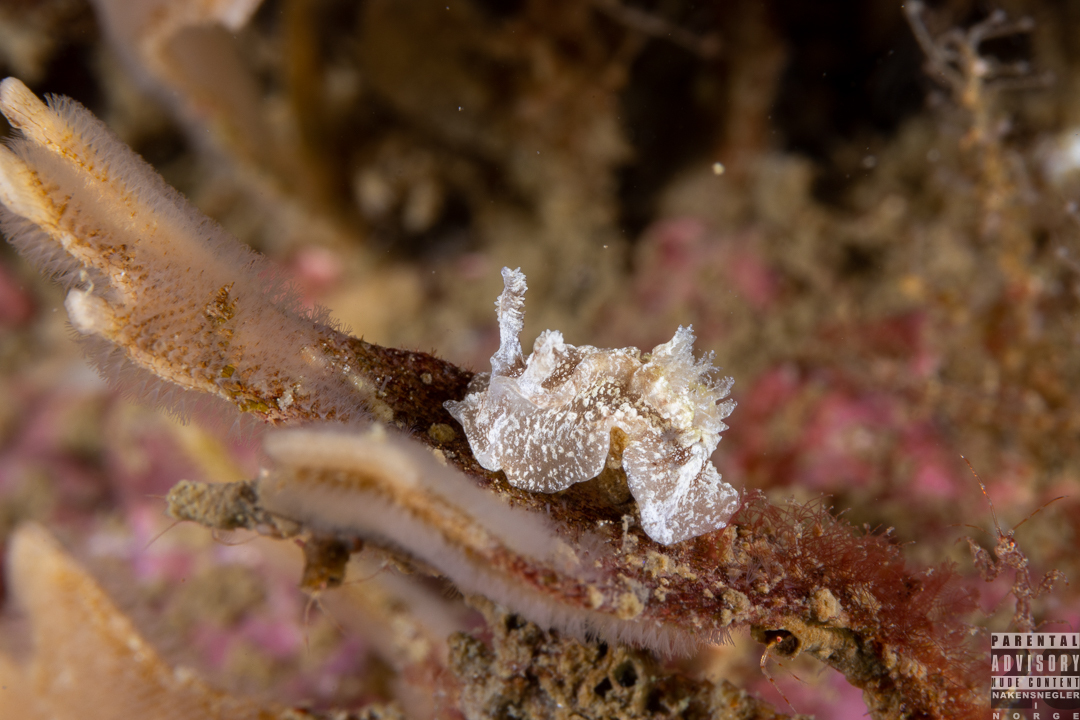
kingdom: Animalia
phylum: Mollusca
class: Gastropoda
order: Nudibranchia
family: Goniodorididae
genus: Pelagella
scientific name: Pelagella castanea
